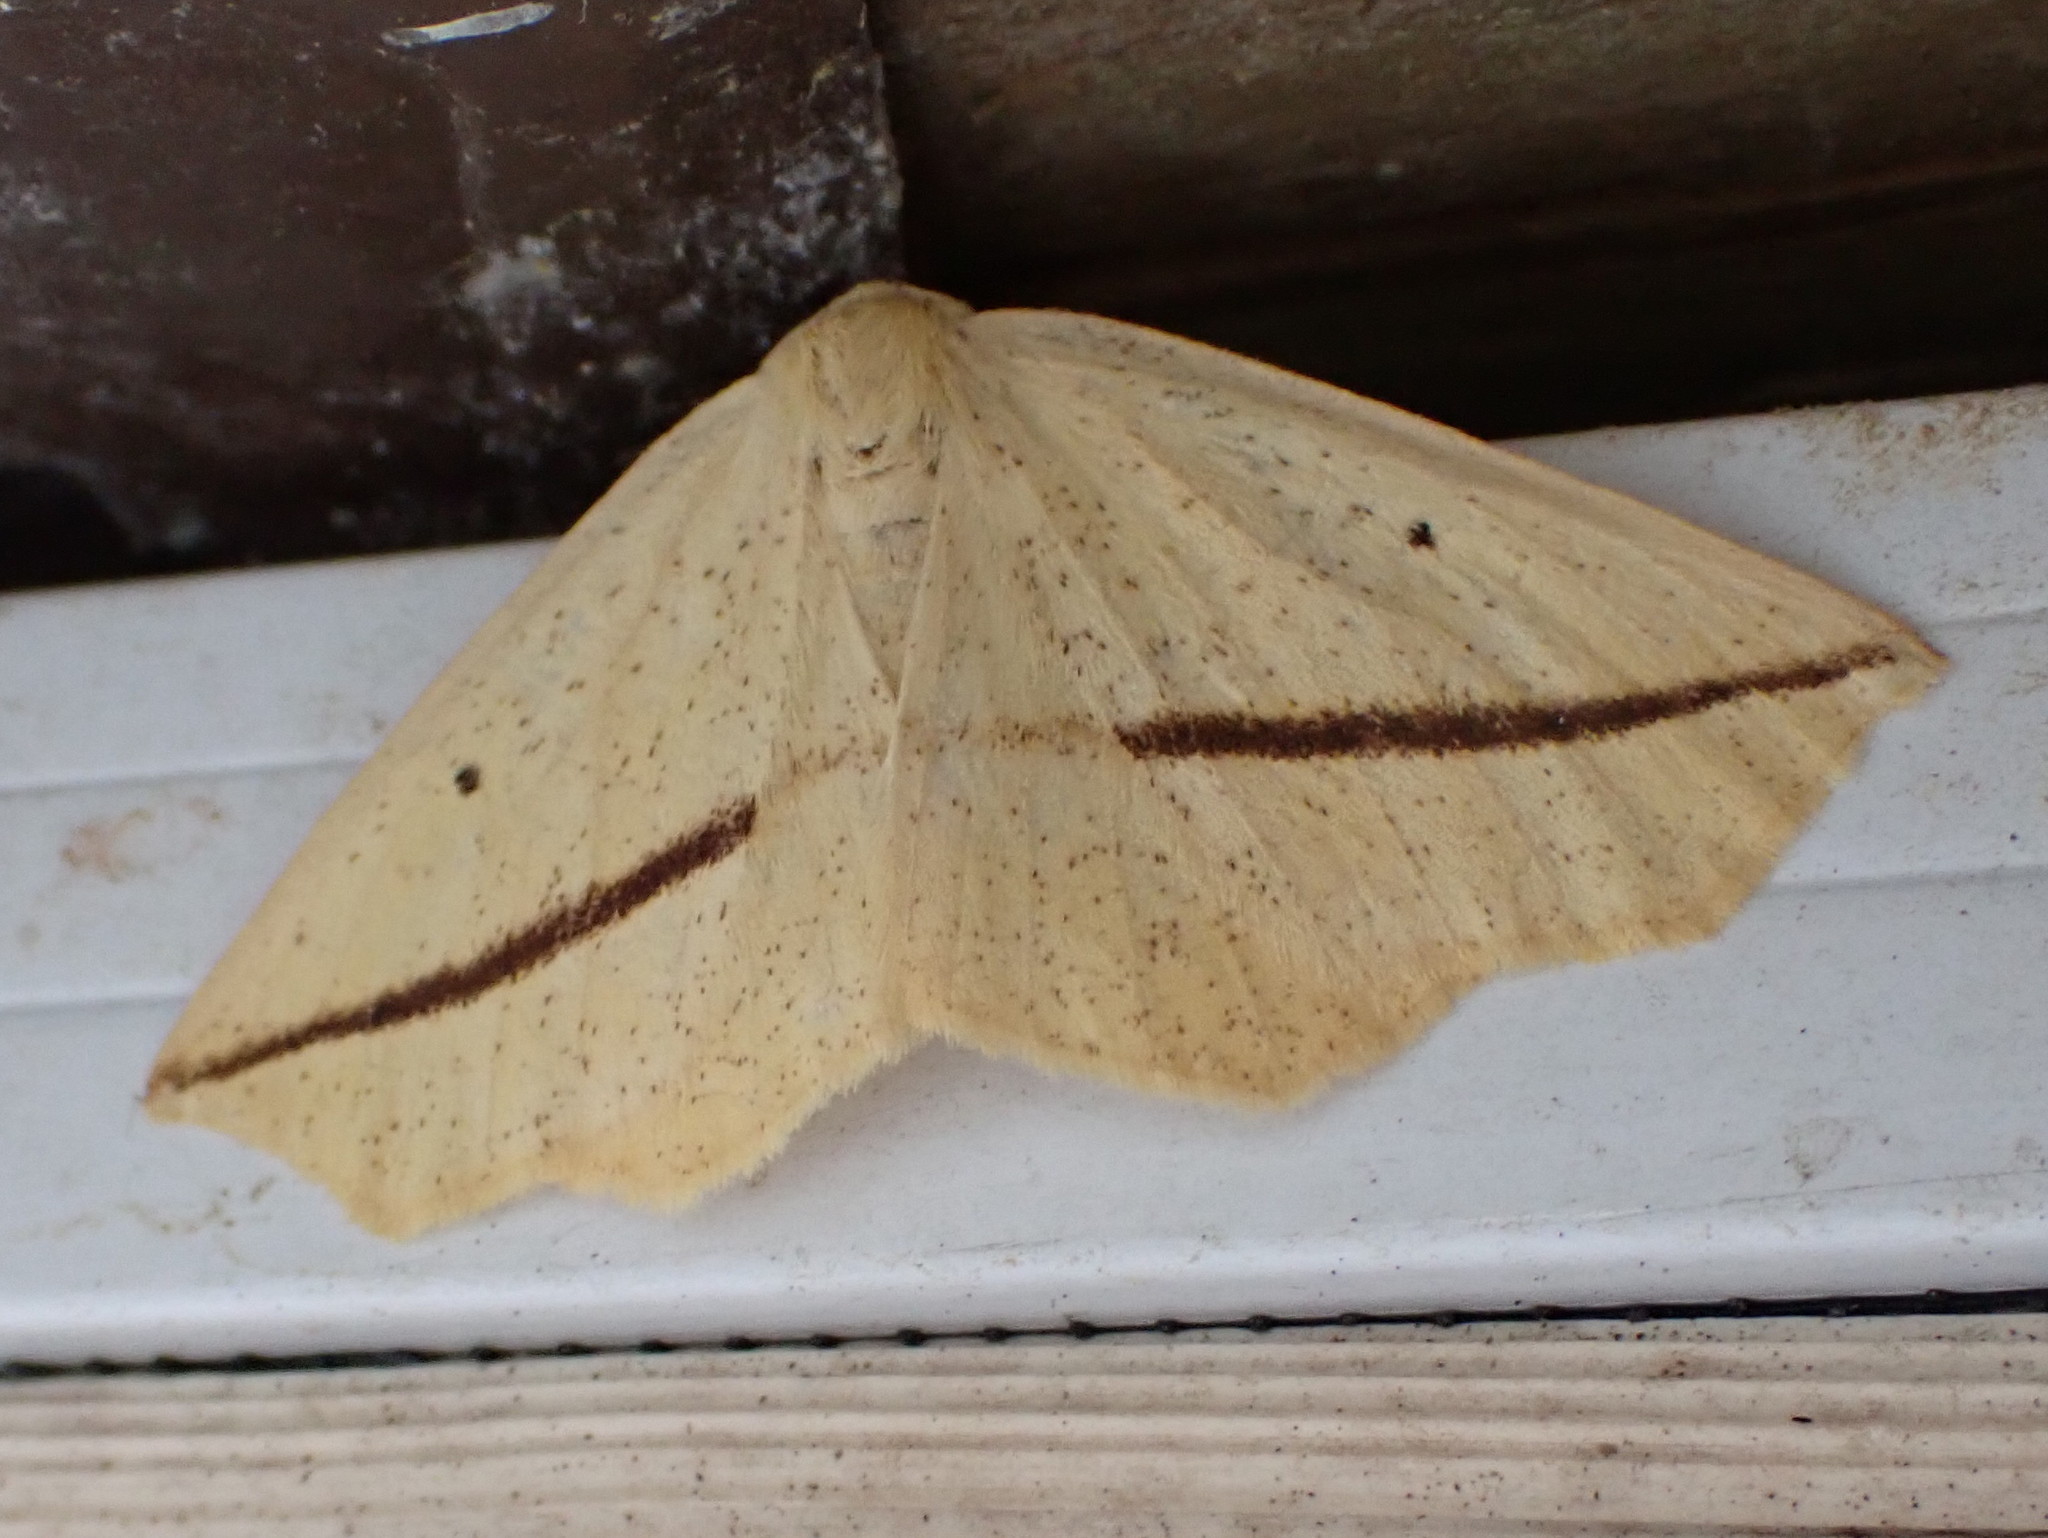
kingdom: Animalia
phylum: Arthropoda
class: Insecta
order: Lepidoptera
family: Geometridae
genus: Tetracis
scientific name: Tetracis crocallata
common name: Yellow slant-line
